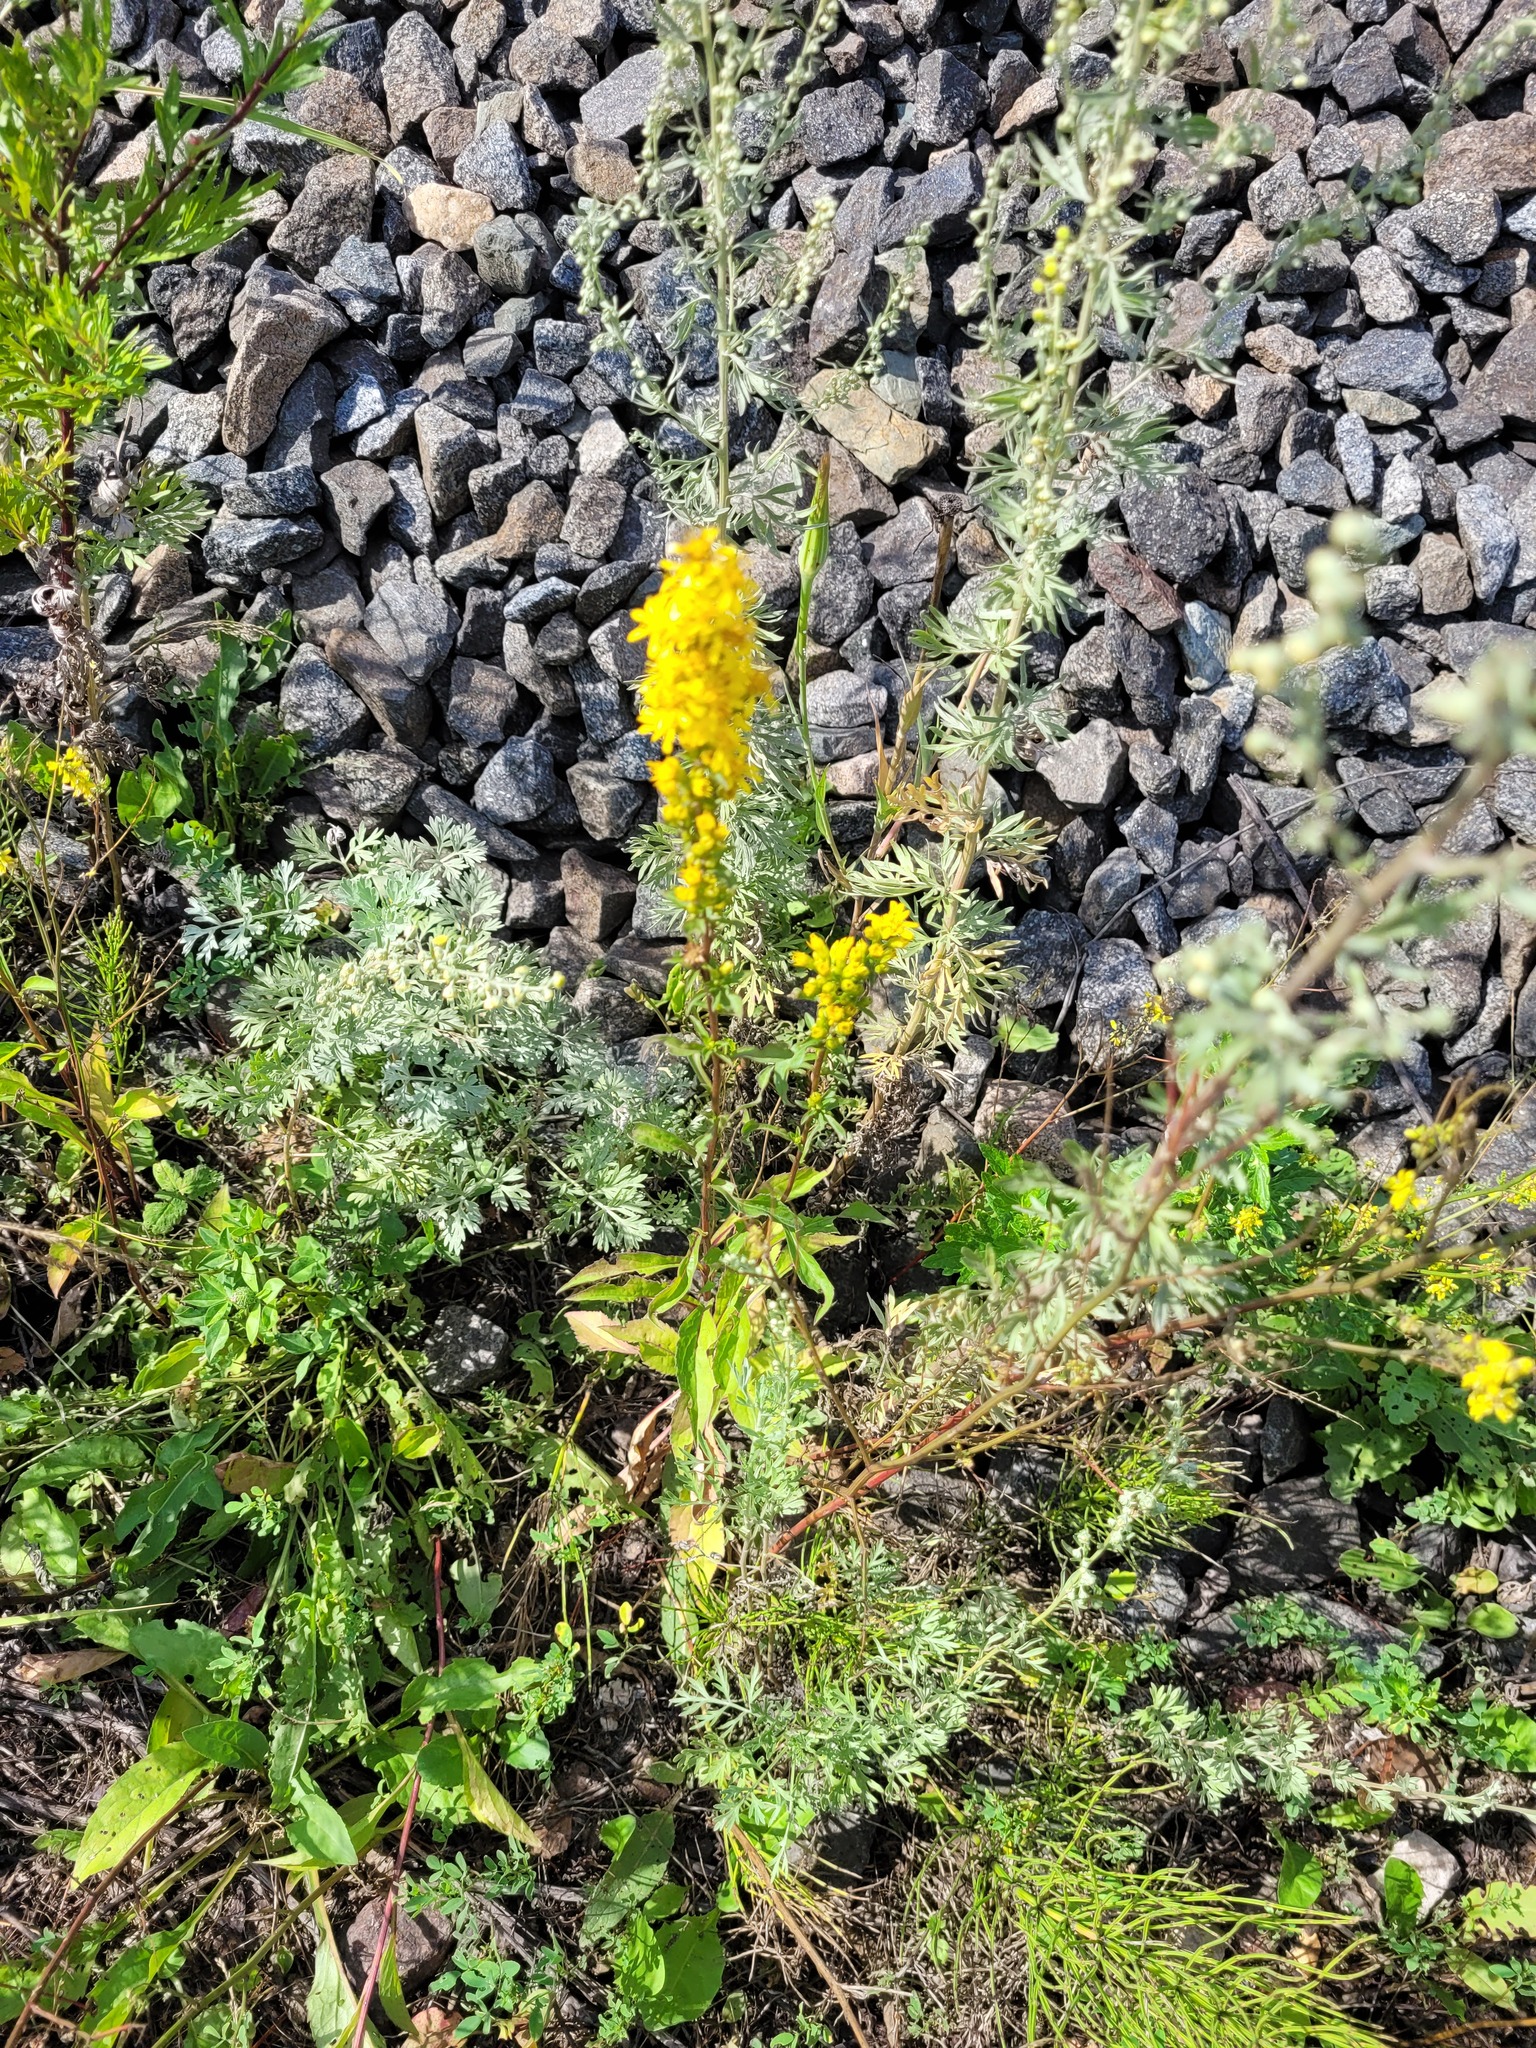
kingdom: Plantae
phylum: Tracheophyta
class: Magnoliopsida
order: Asterales
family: Asteraceae
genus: Solidago
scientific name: Solidago virgaurea
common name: Goldenrod
